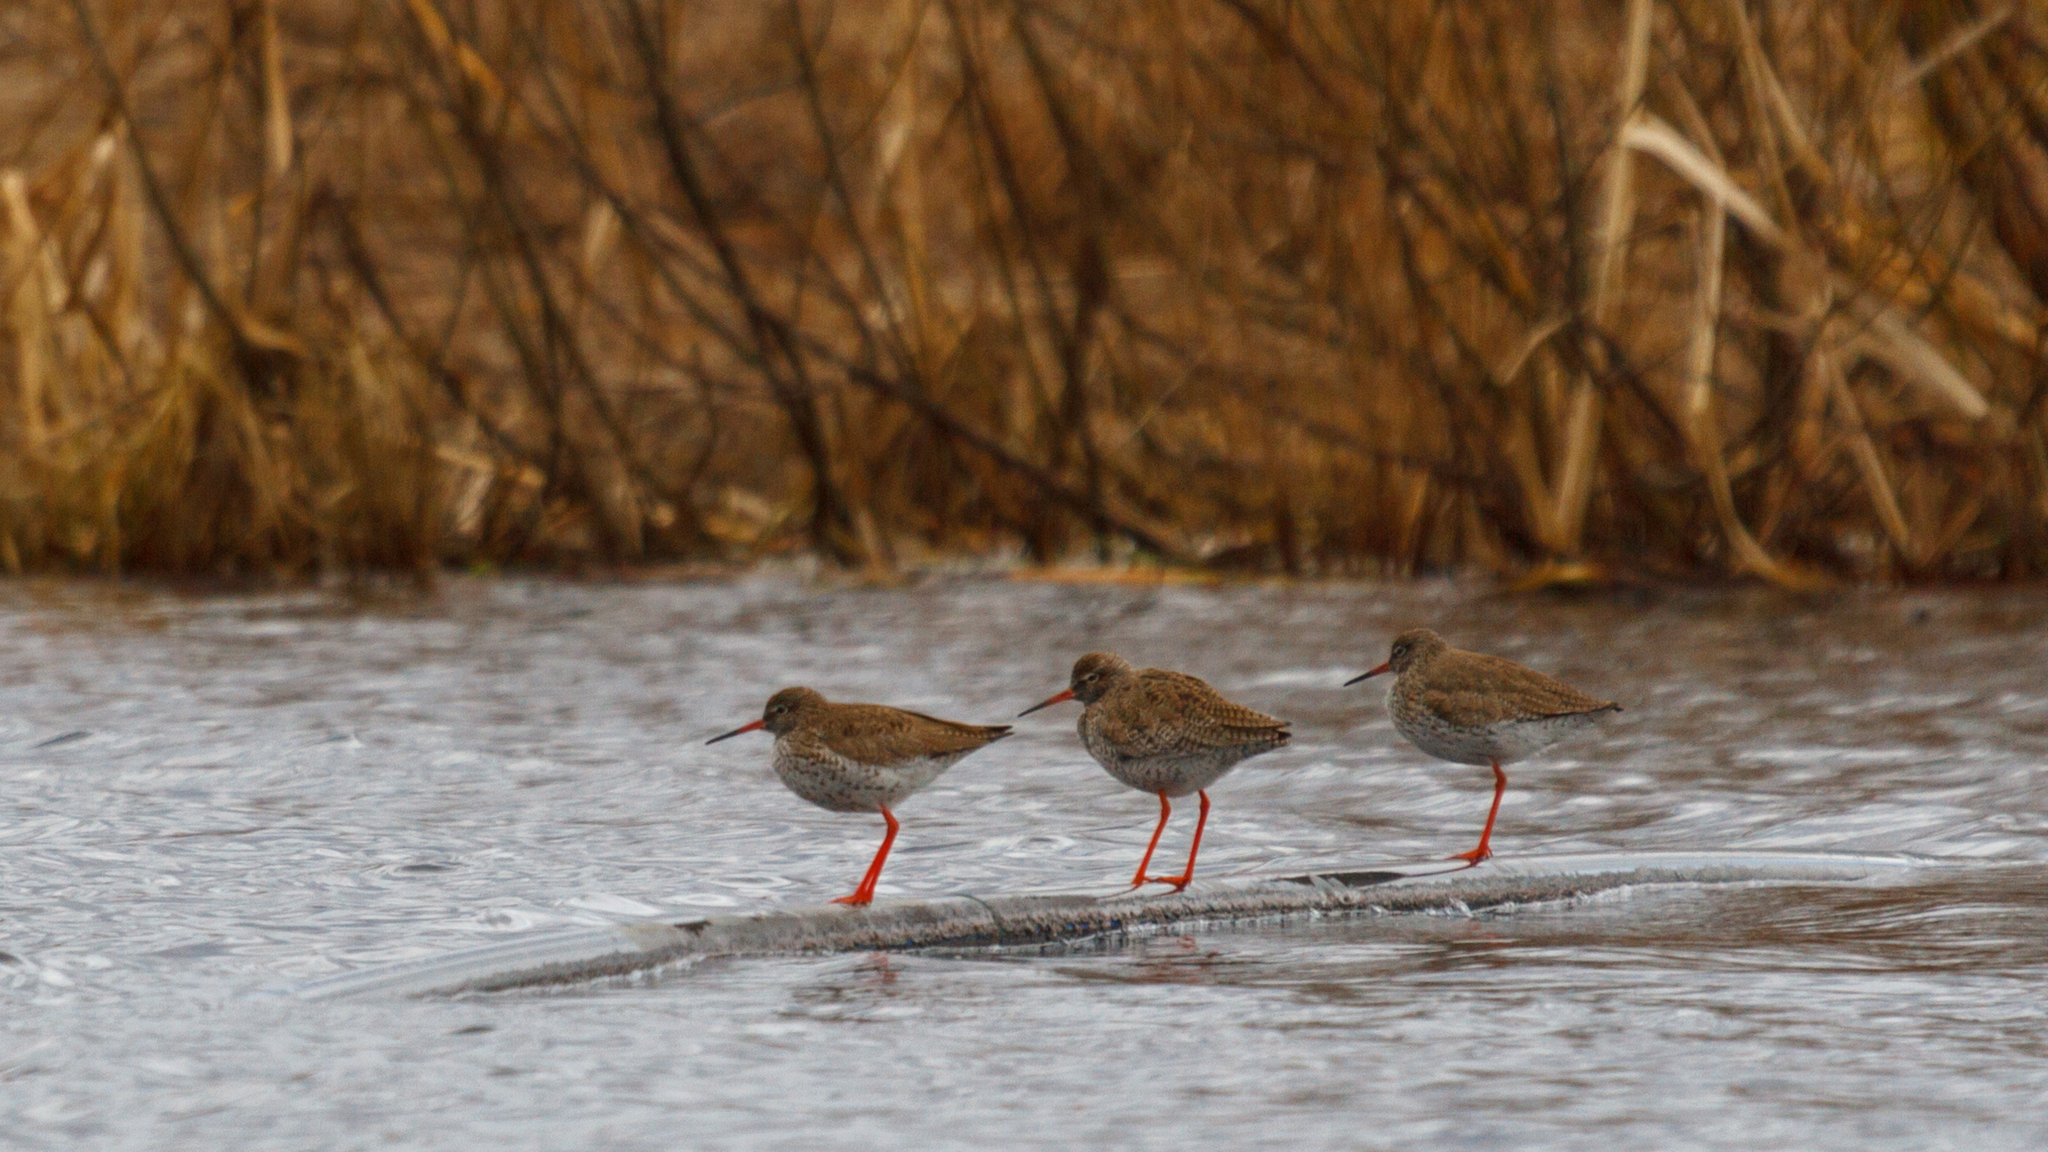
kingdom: Animalia
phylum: Chordata
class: Aves
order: Charadriiformes
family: Scolopacidae
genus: Tringa
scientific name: Tringa totanus
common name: Common redshank
